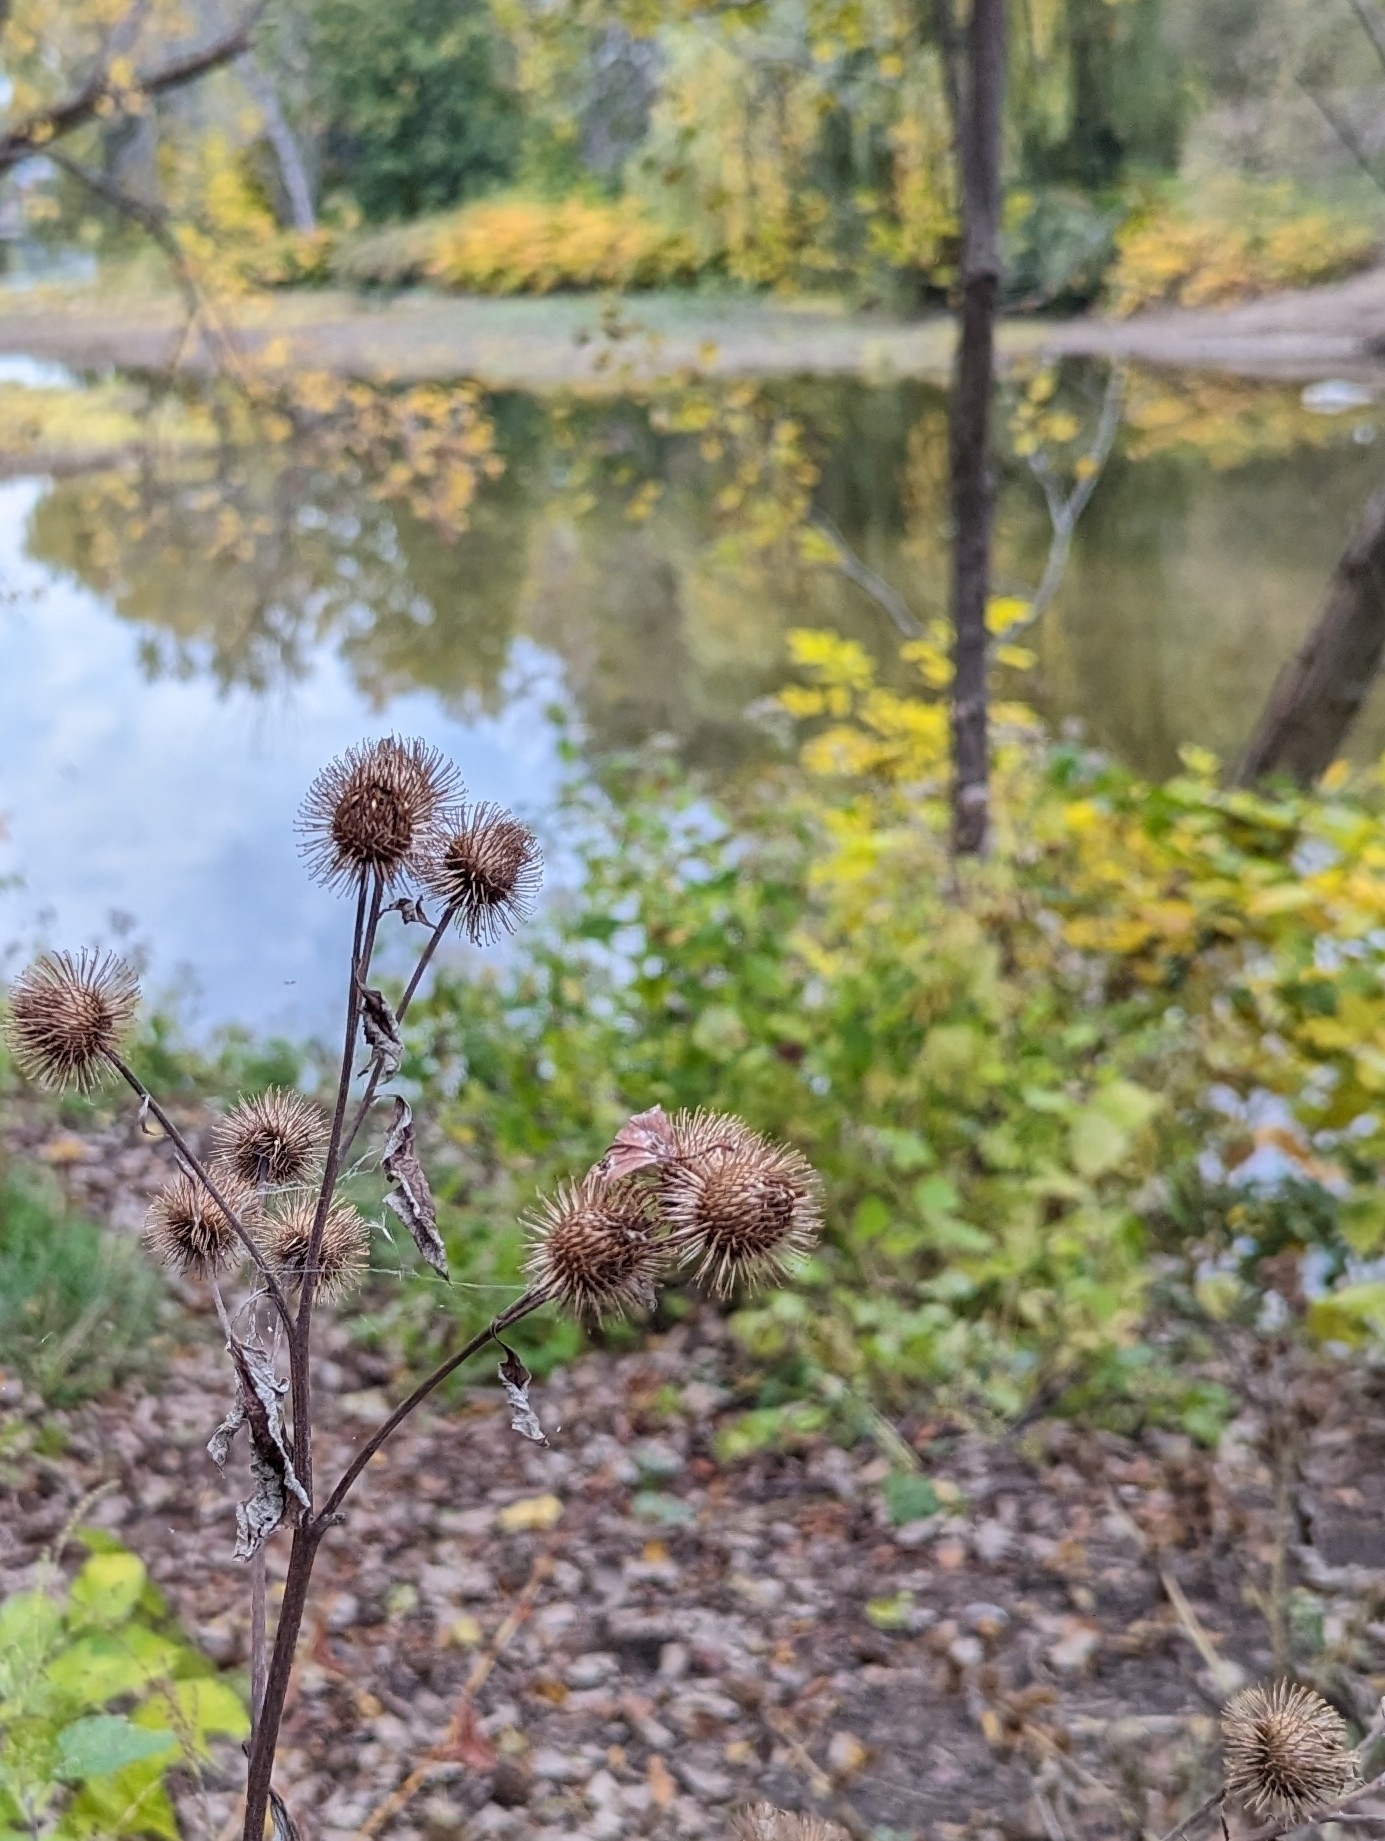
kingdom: Plantae
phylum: Tracheophyta
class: Magnoliopsida
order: Asterales
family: Asteraceae
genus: Arctium
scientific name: Arctium lappa
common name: Greater burdock
